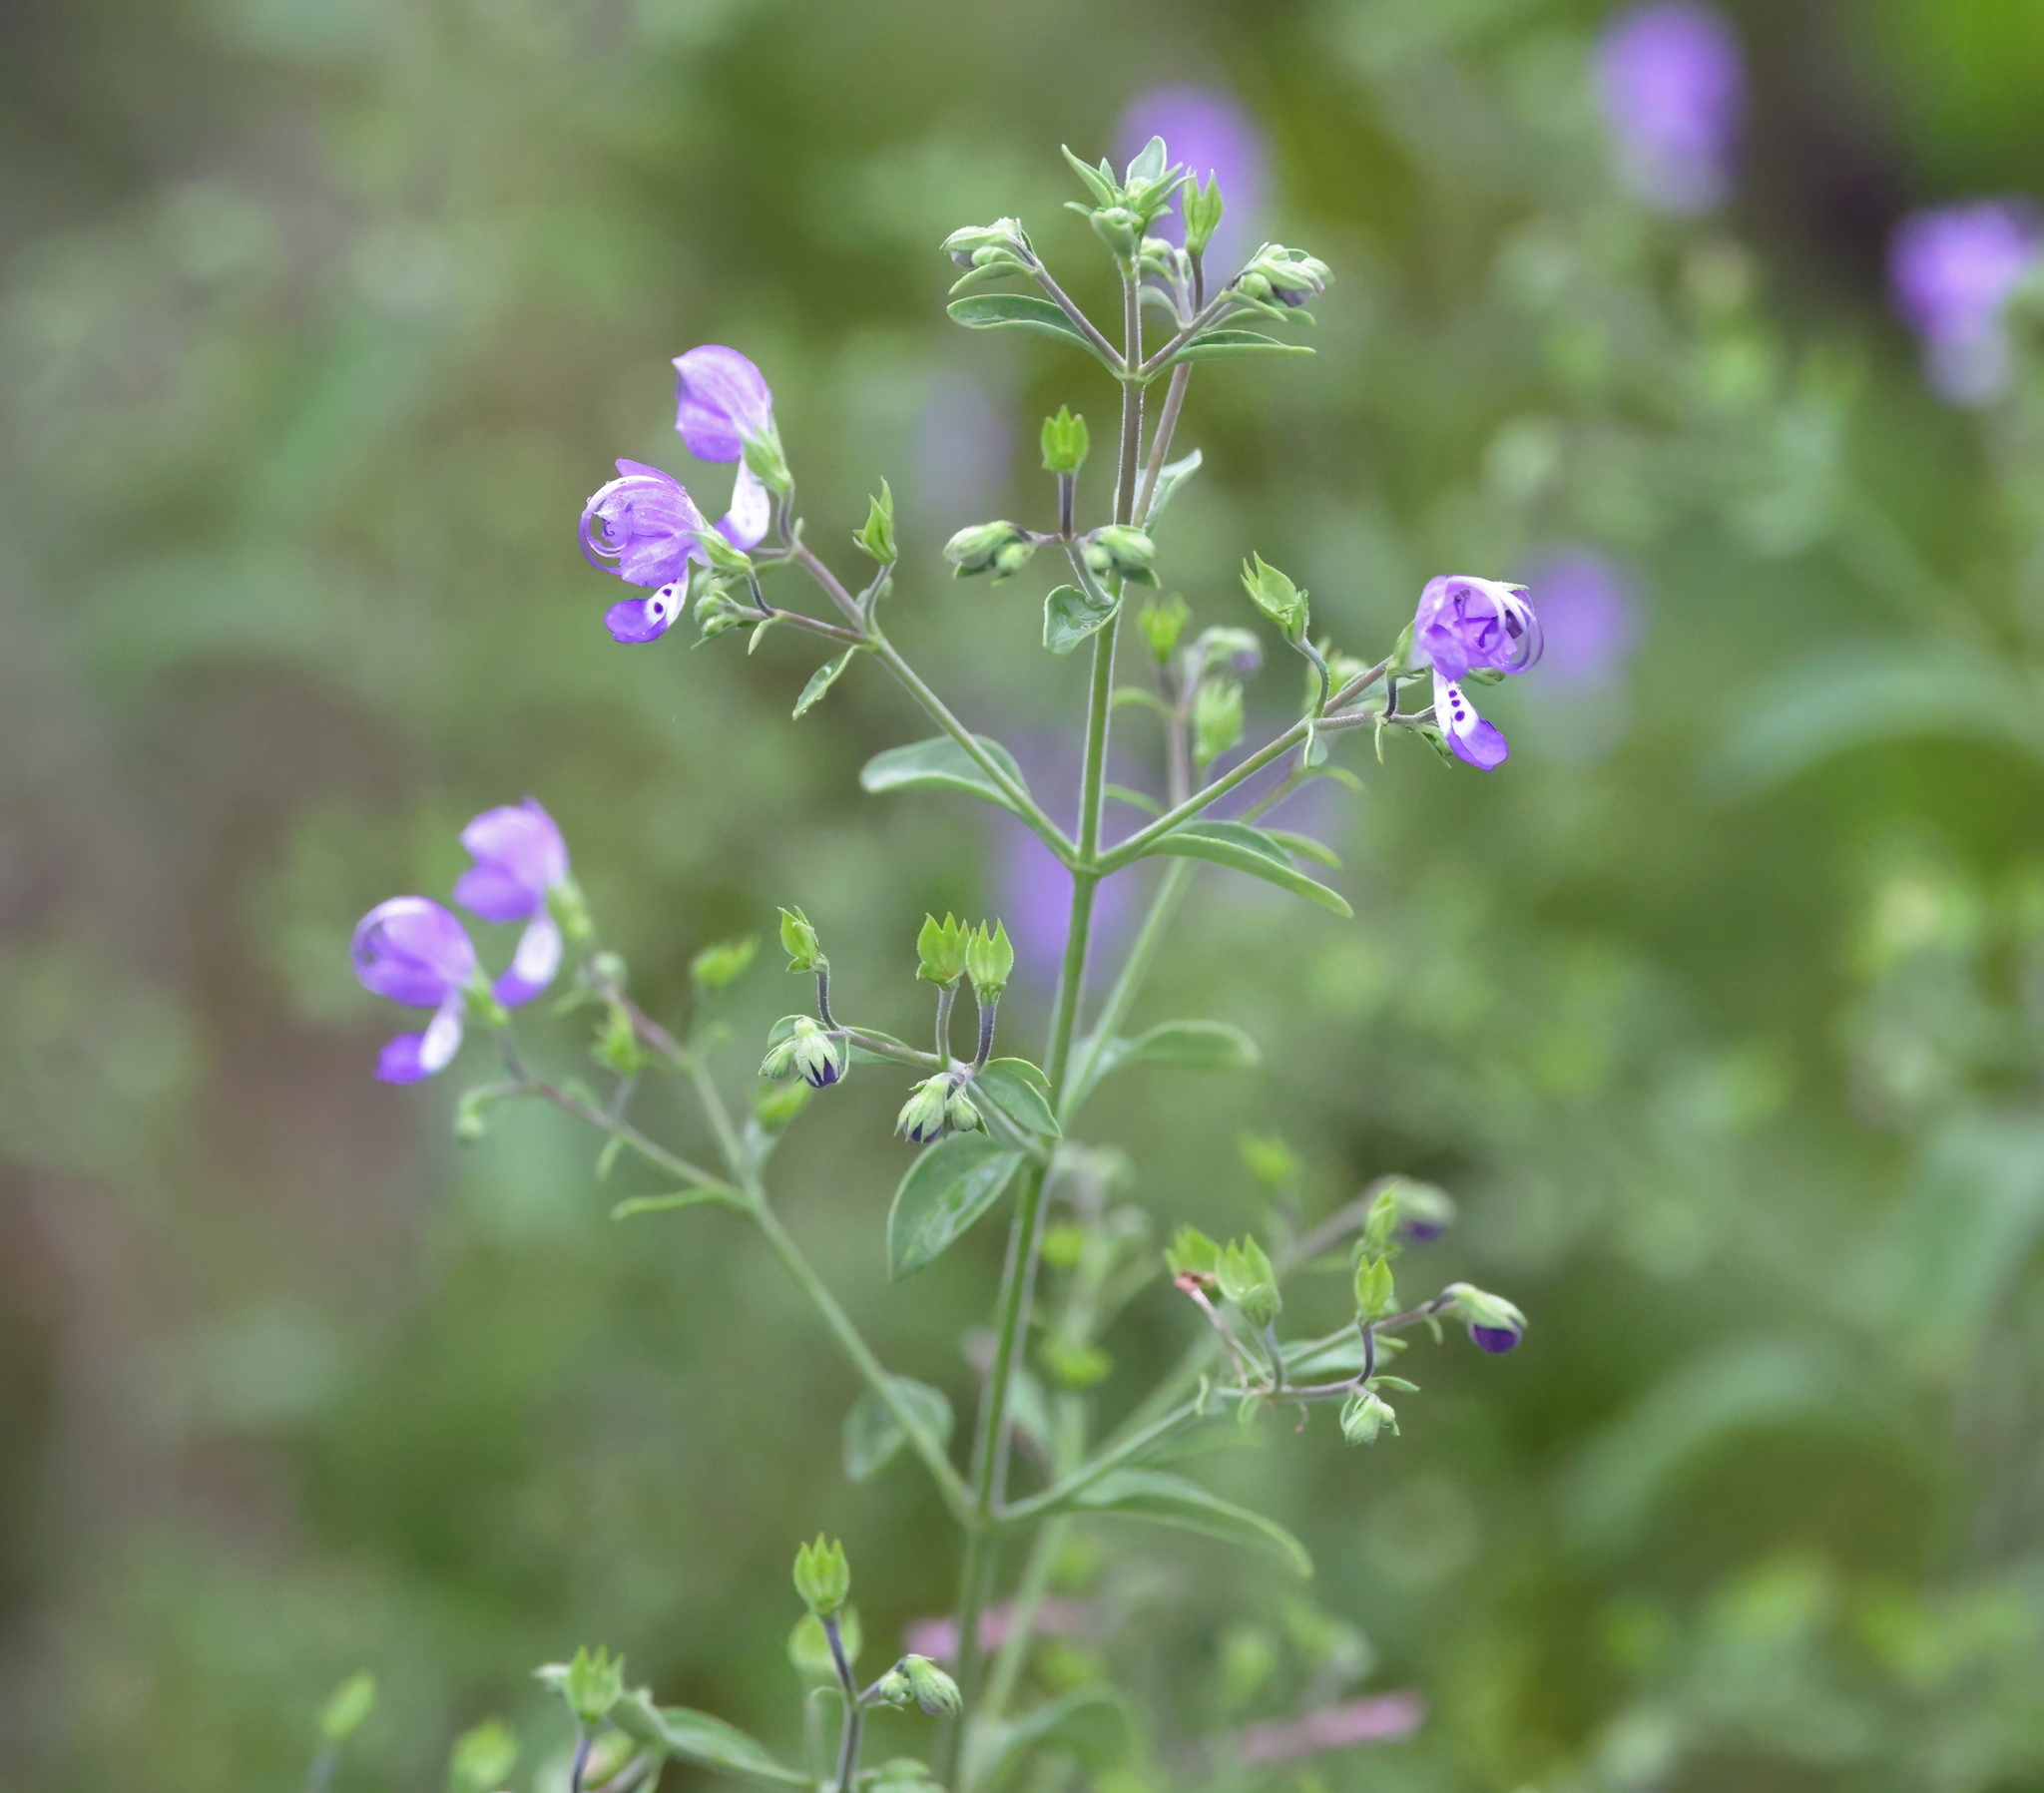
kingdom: Plantae
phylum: Tracheophyta
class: Magnoliopsida
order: Lamiales
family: Lamiaceae
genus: Trichostema
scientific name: Trichostema fruticosum
